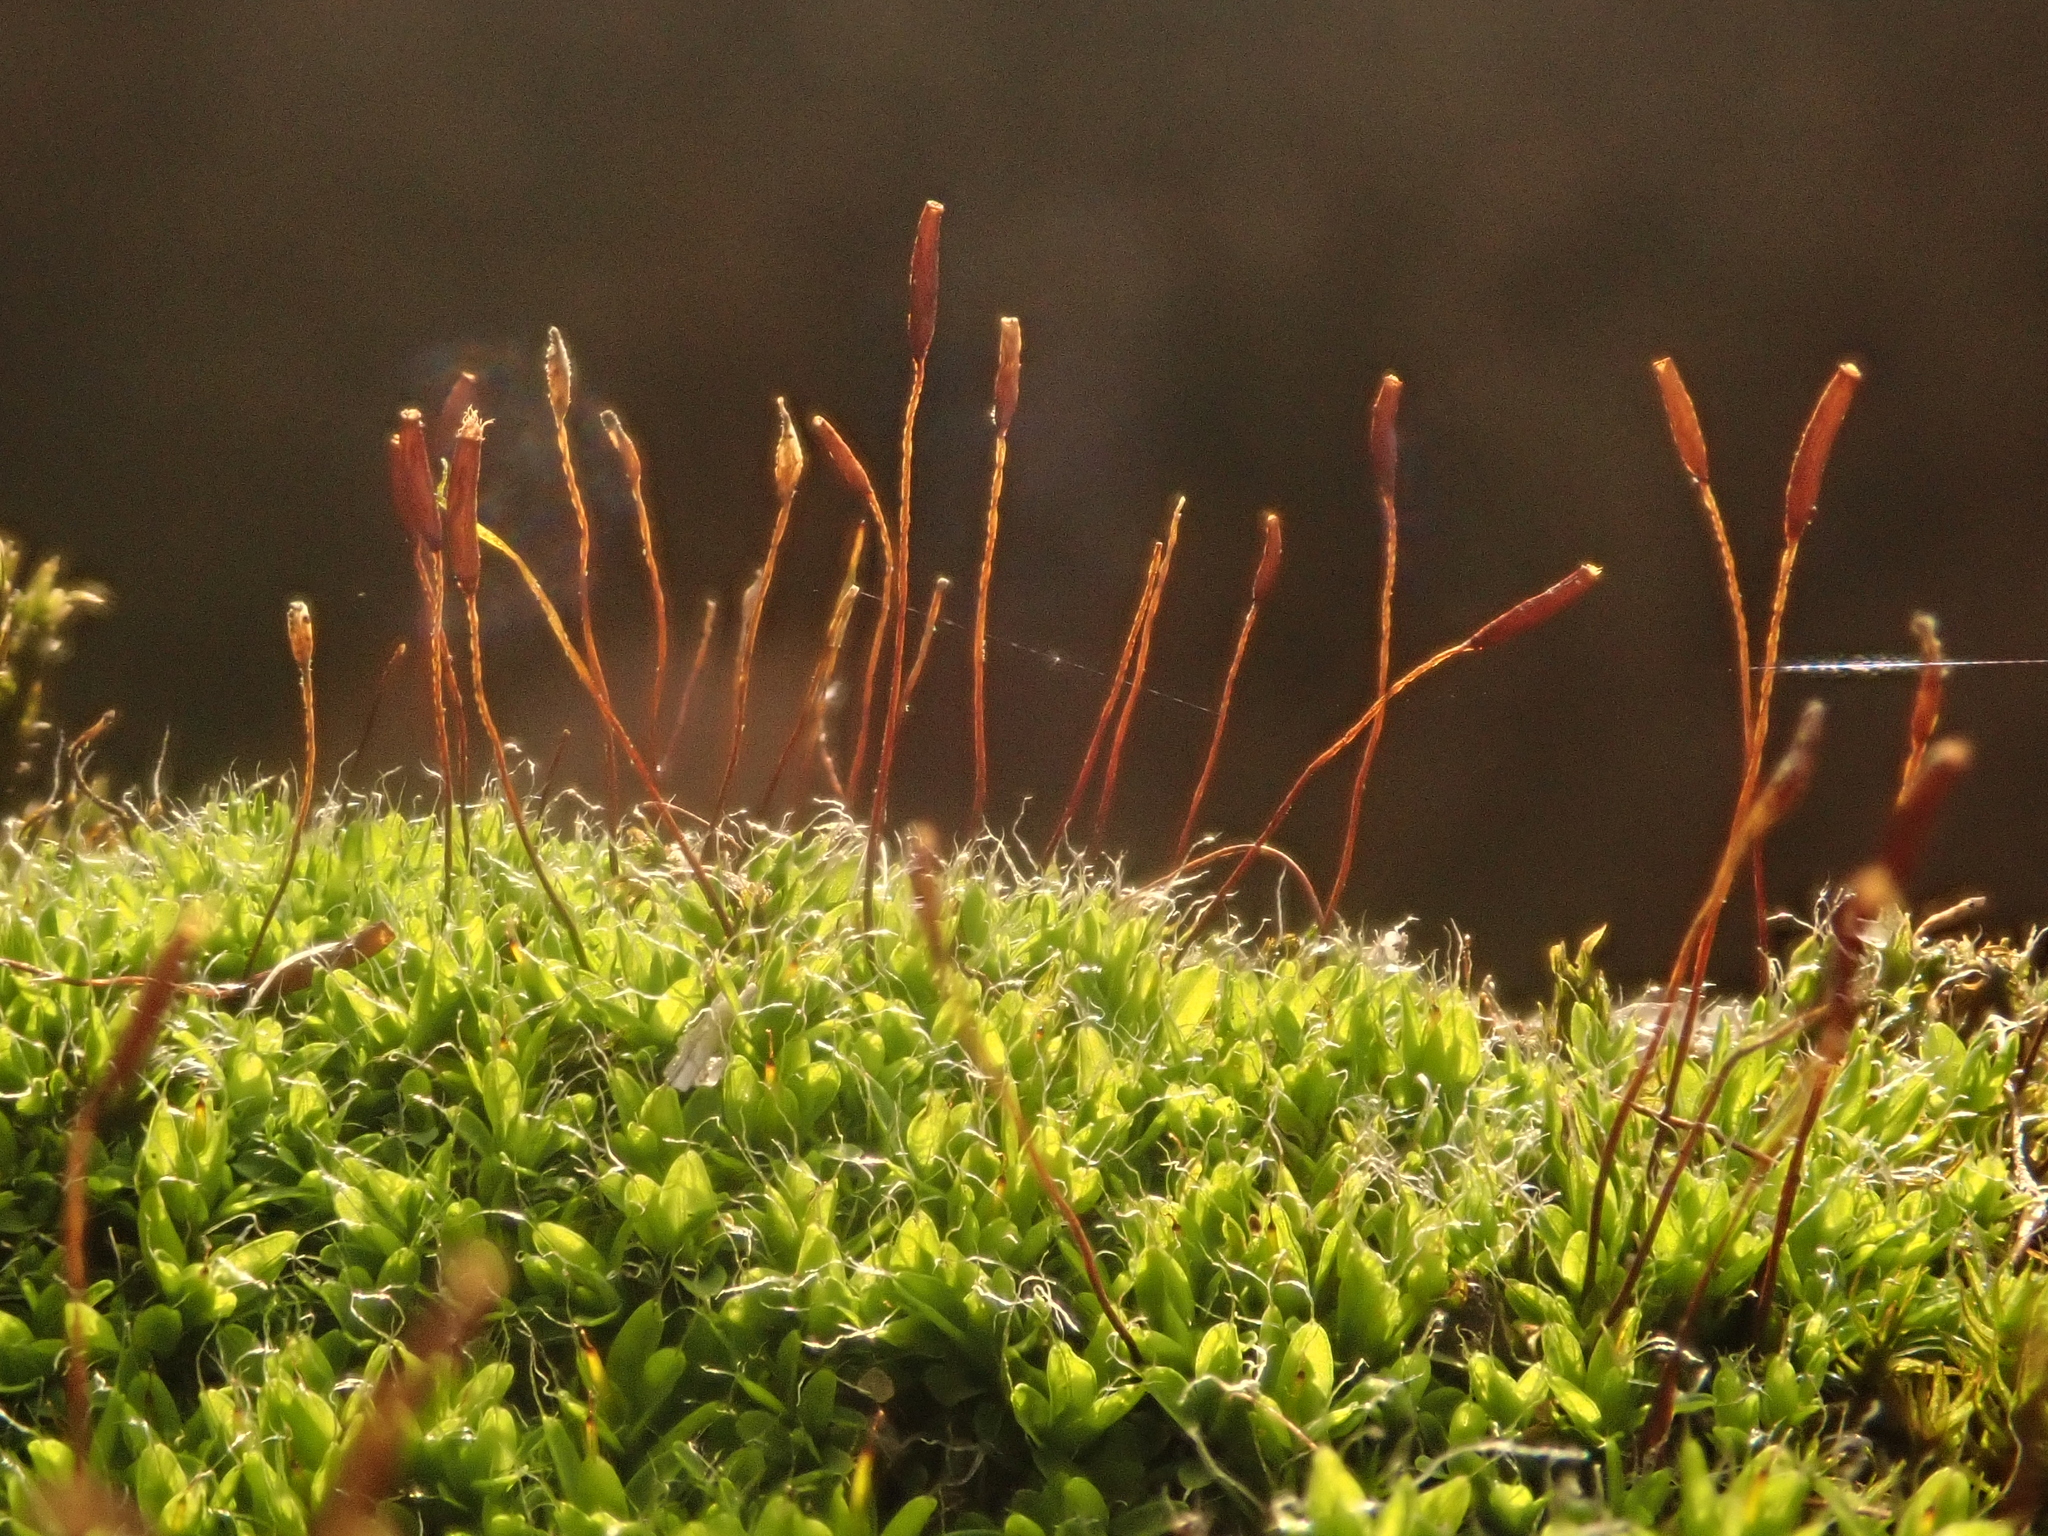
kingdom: Plantae
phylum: Bryophyta
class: Bryopsida
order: Pottiales
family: Pottiaceae
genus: Tortula
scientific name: Tortula muralis
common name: Wall screw-moss
